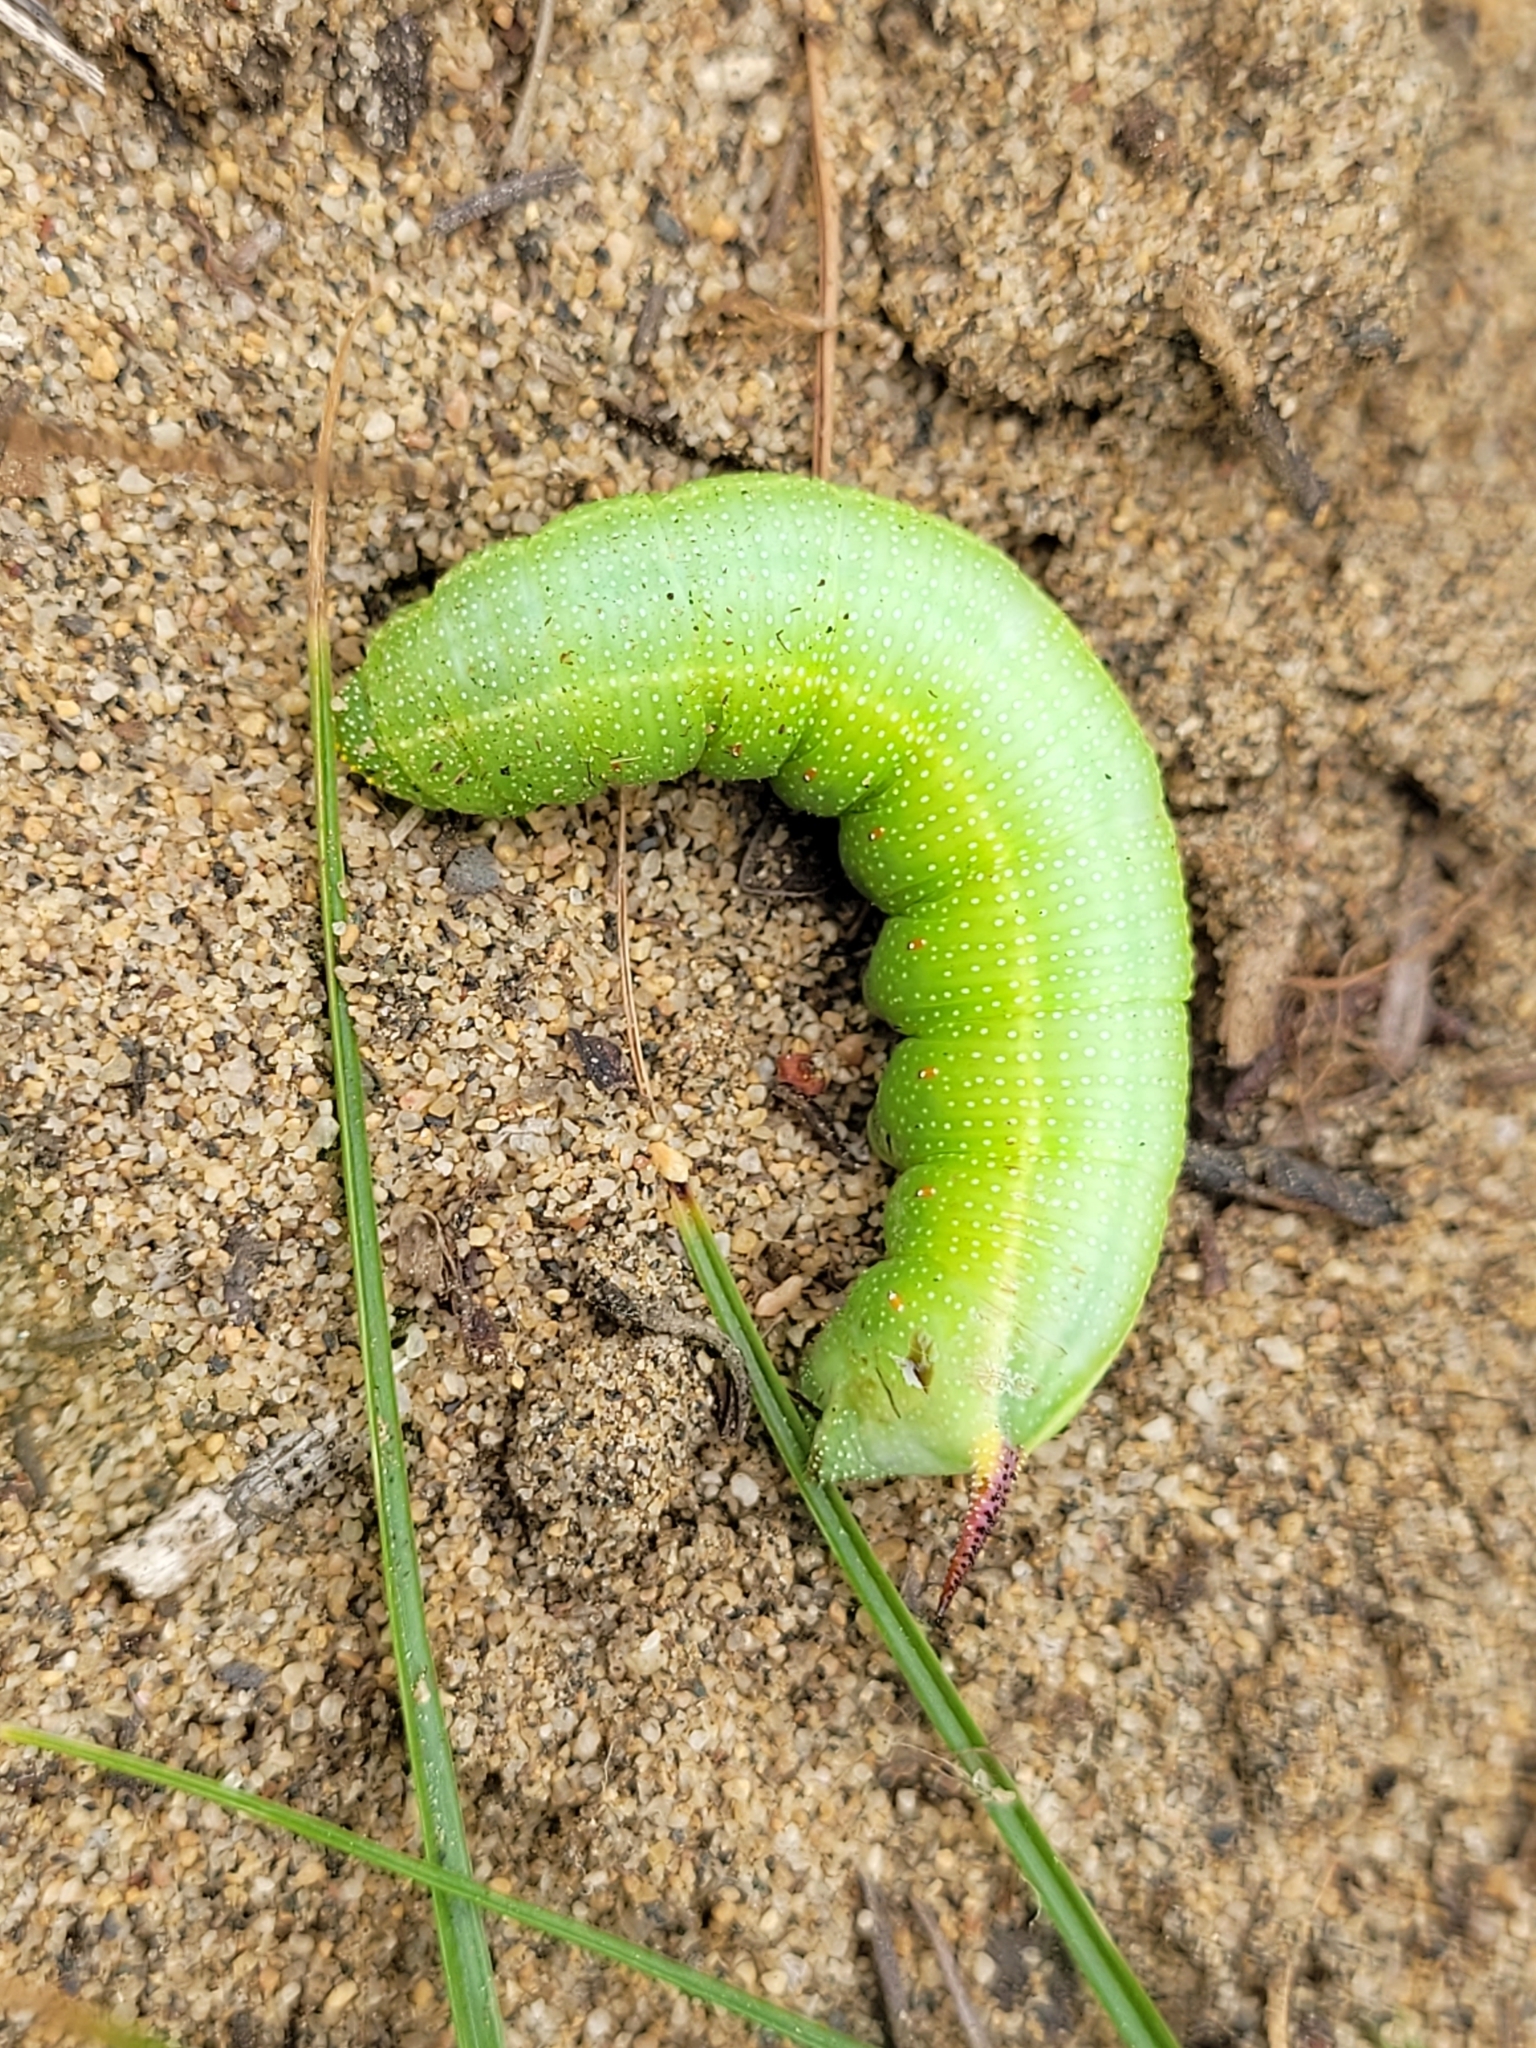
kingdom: Animalia
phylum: Arthropoda
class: Insecta
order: Lepidoptera
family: Sphingidae
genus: Hemaris
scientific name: Hemaris diffinis
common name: Bumblebee moth
